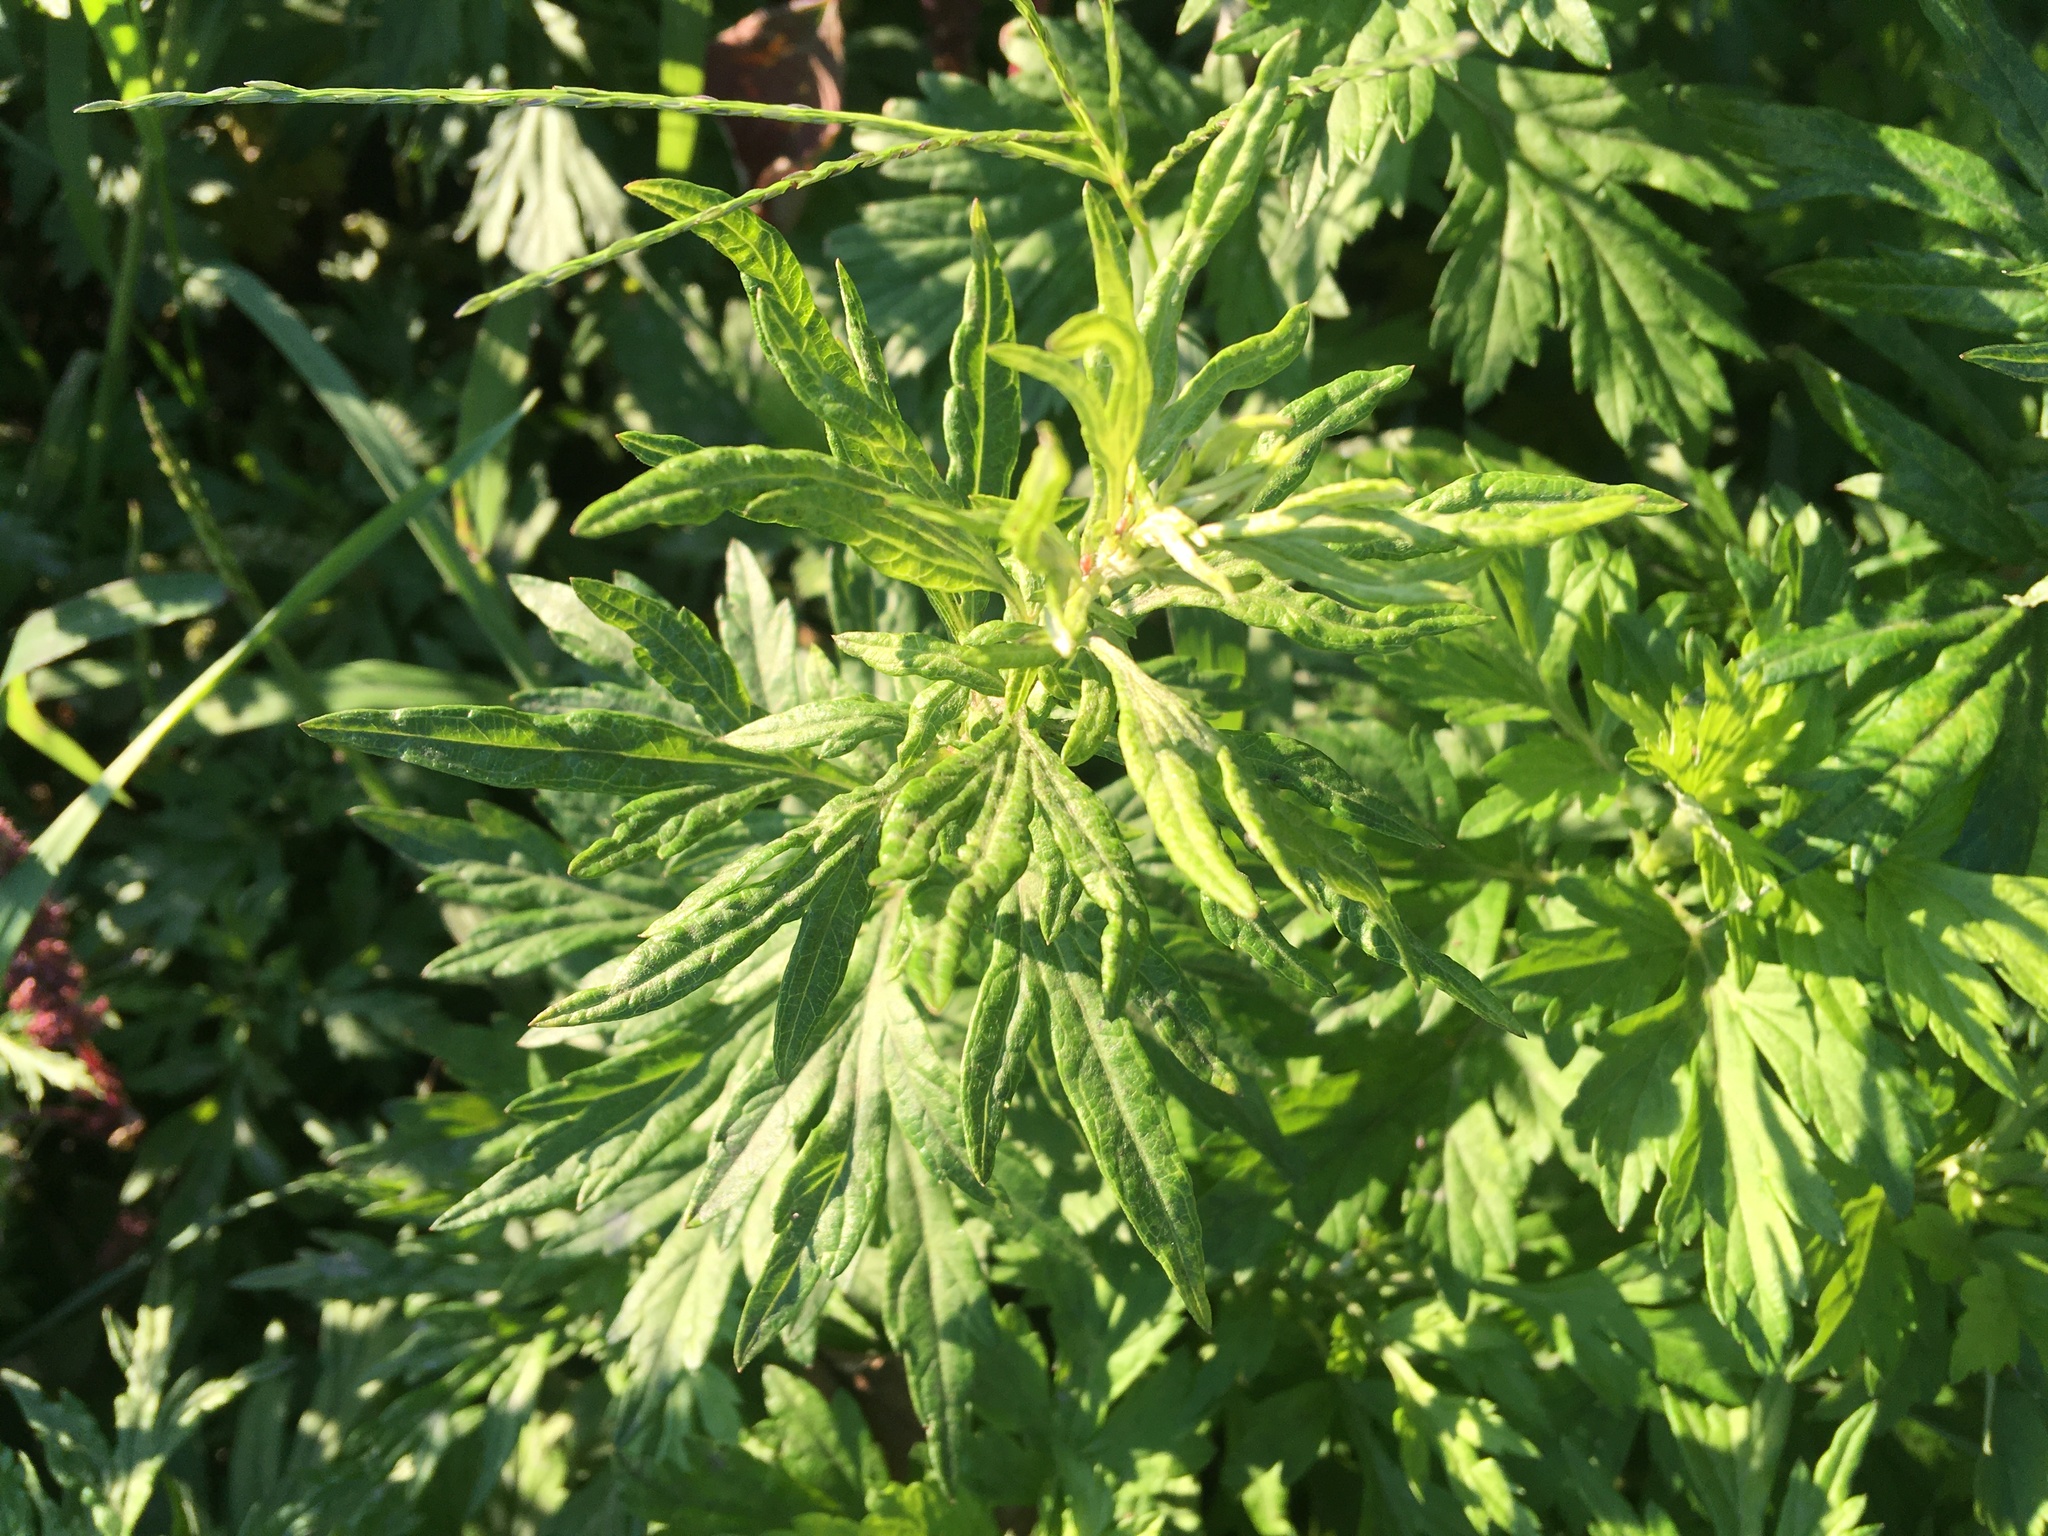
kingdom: Plantae
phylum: Tracheophyta
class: Magnoliopsida
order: Asterales
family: Asteraceae
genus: Artemisia
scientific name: Artemisia vulgaris
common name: Mugwort
